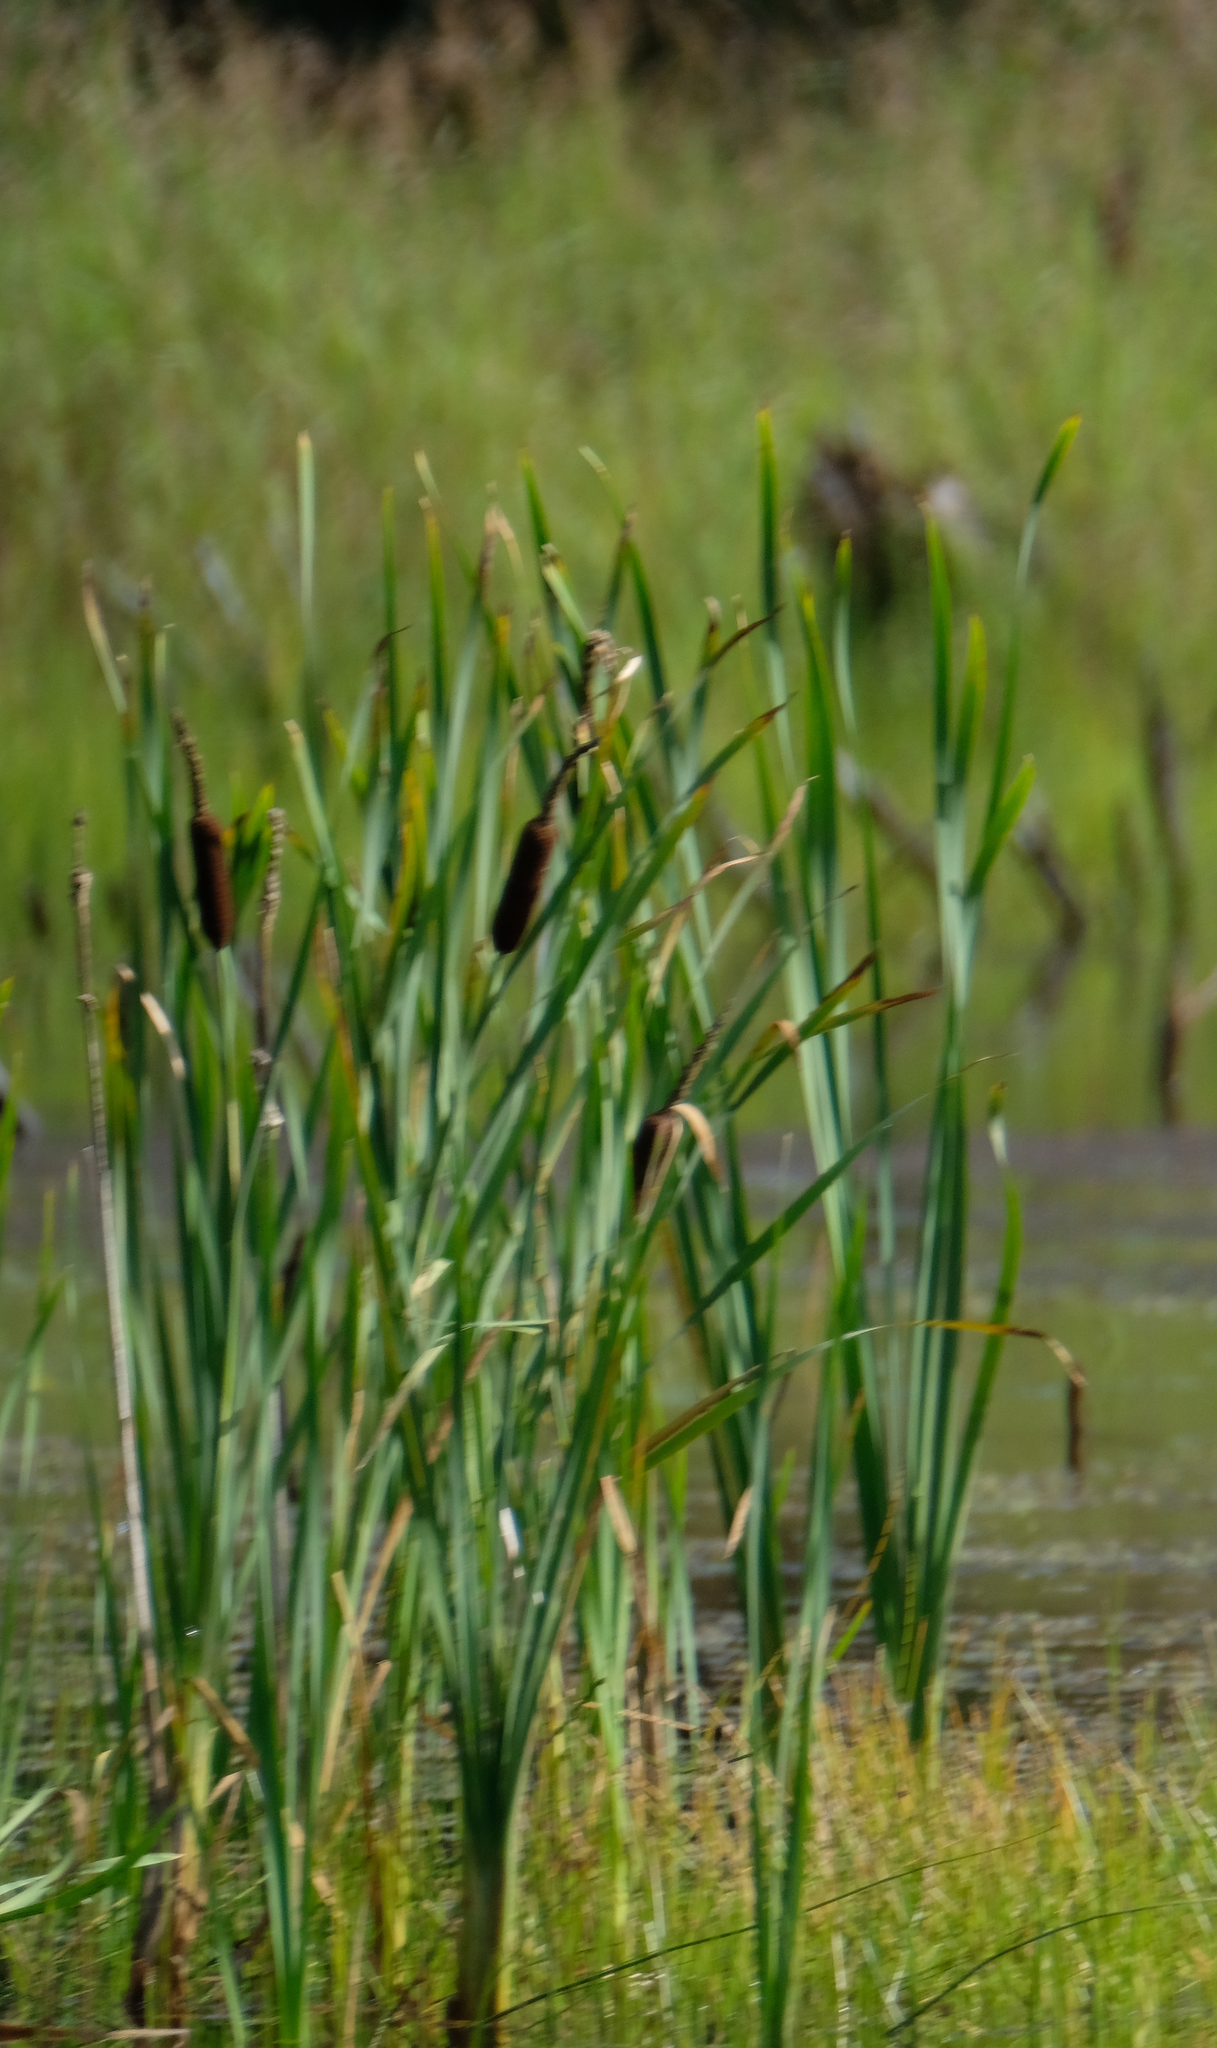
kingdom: Plantae
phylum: Tracheophyta
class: Liliopsida
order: Poales
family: Typhaceae
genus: Typha
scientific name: Typha latifolia
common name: Broadleaf cattail
